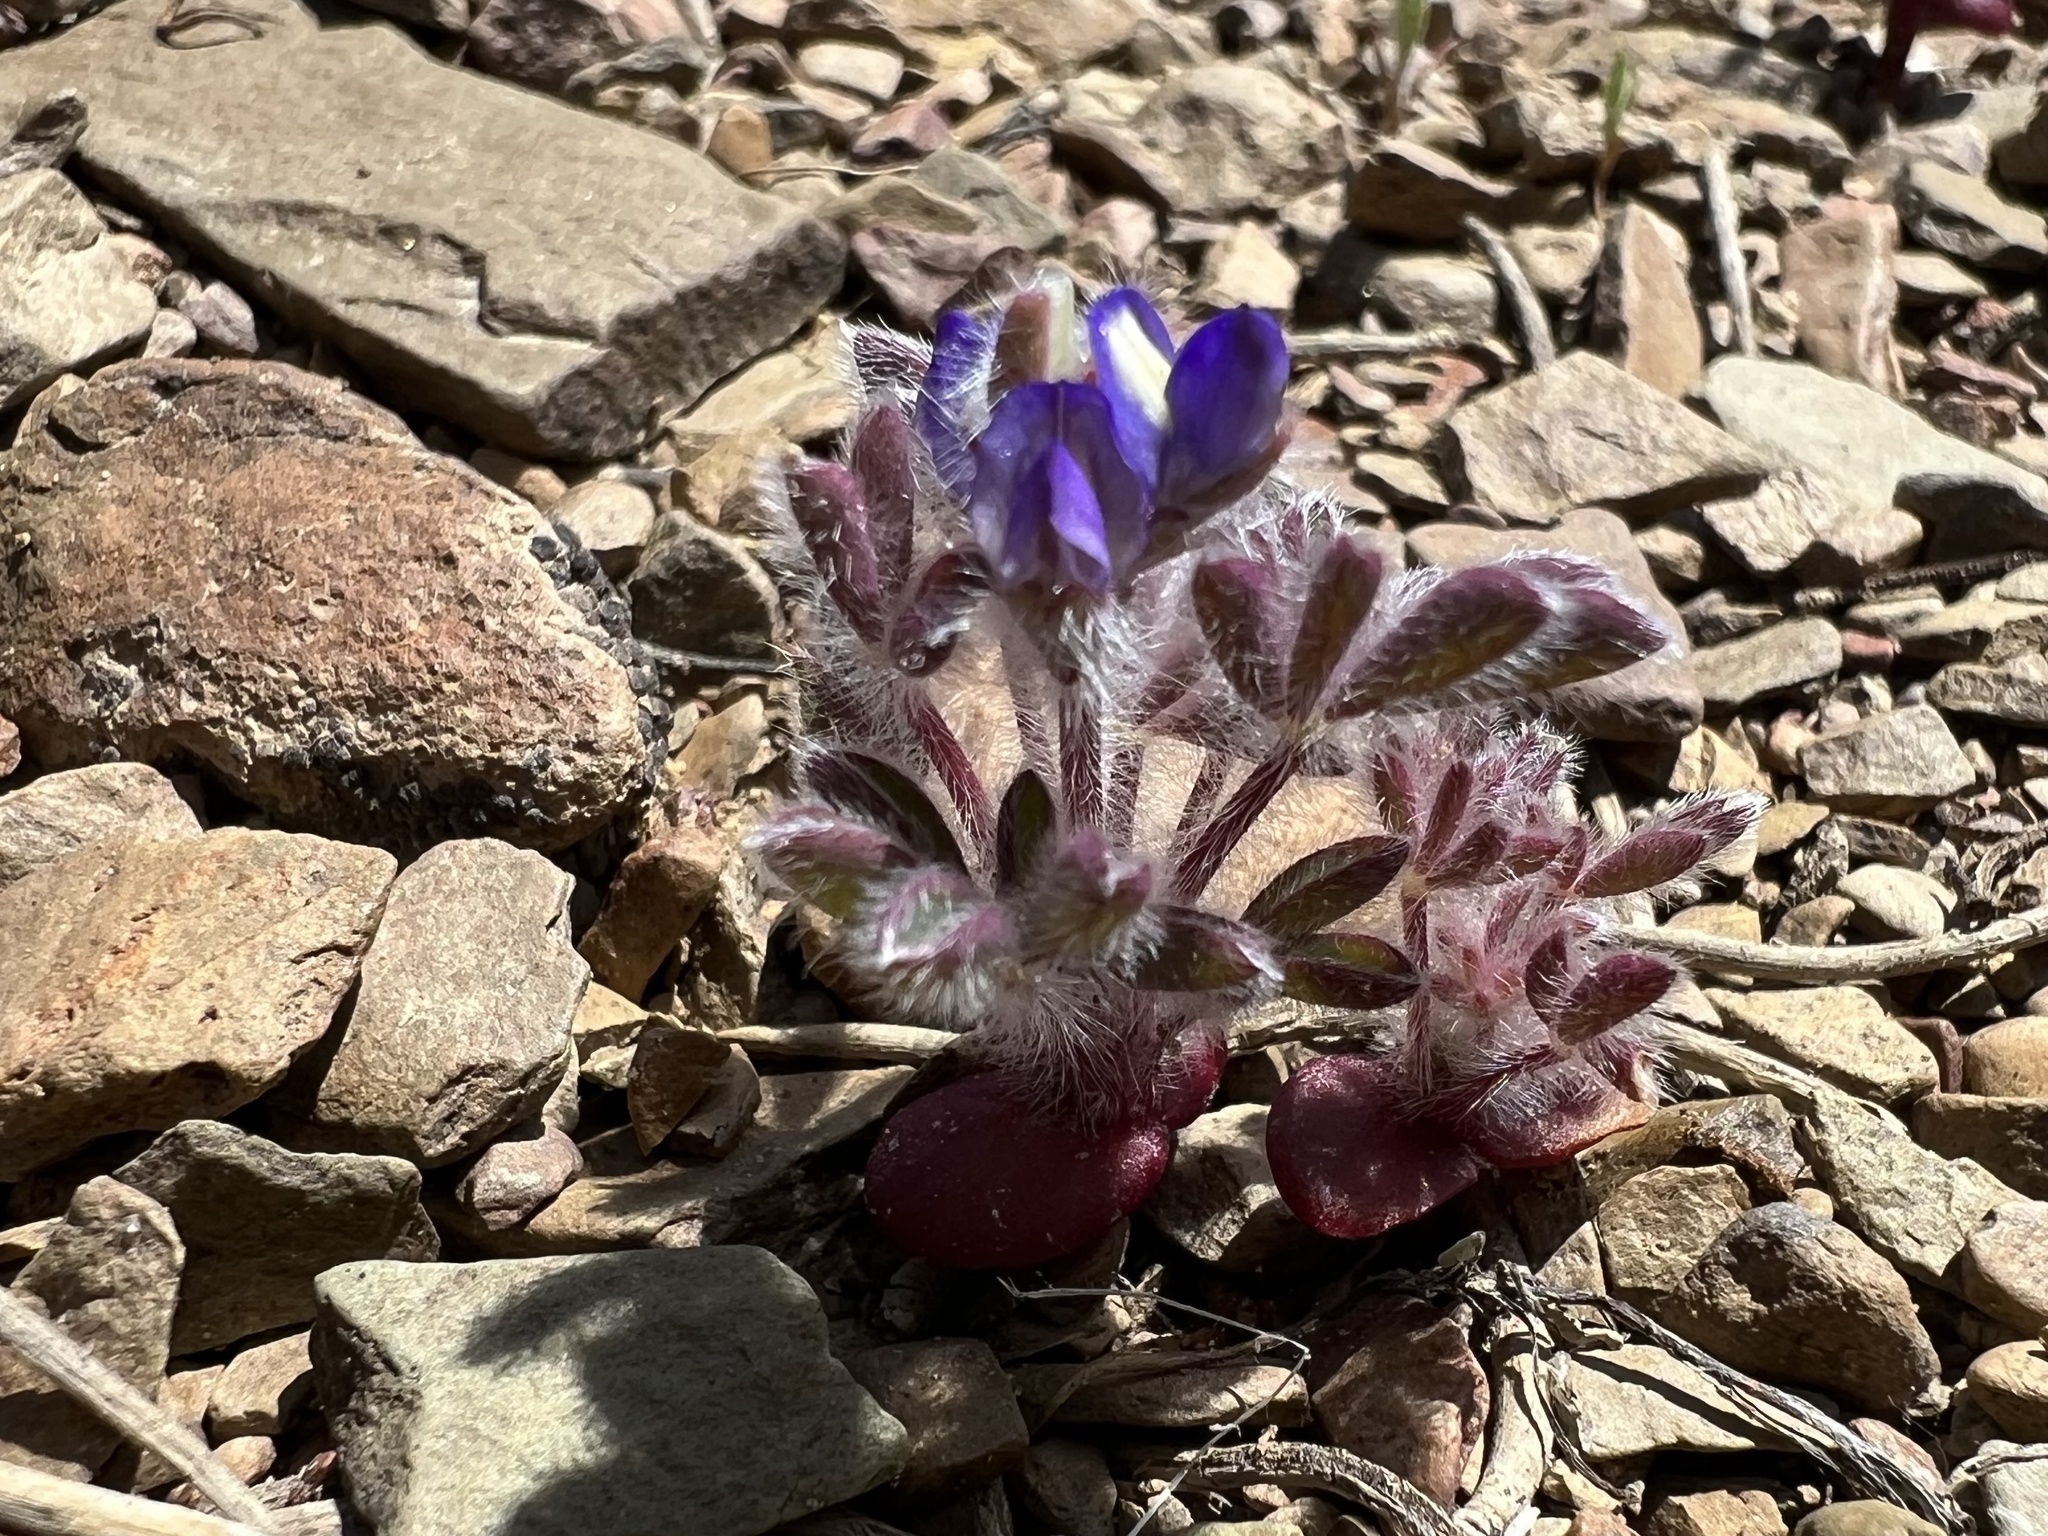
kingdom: Plantae
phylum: Tracheophyta
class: Magnoliopsida
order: Fabales
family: Fabaceae
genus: Lupinus
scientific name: Lupinus brevicaulis
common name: Sand lupine
